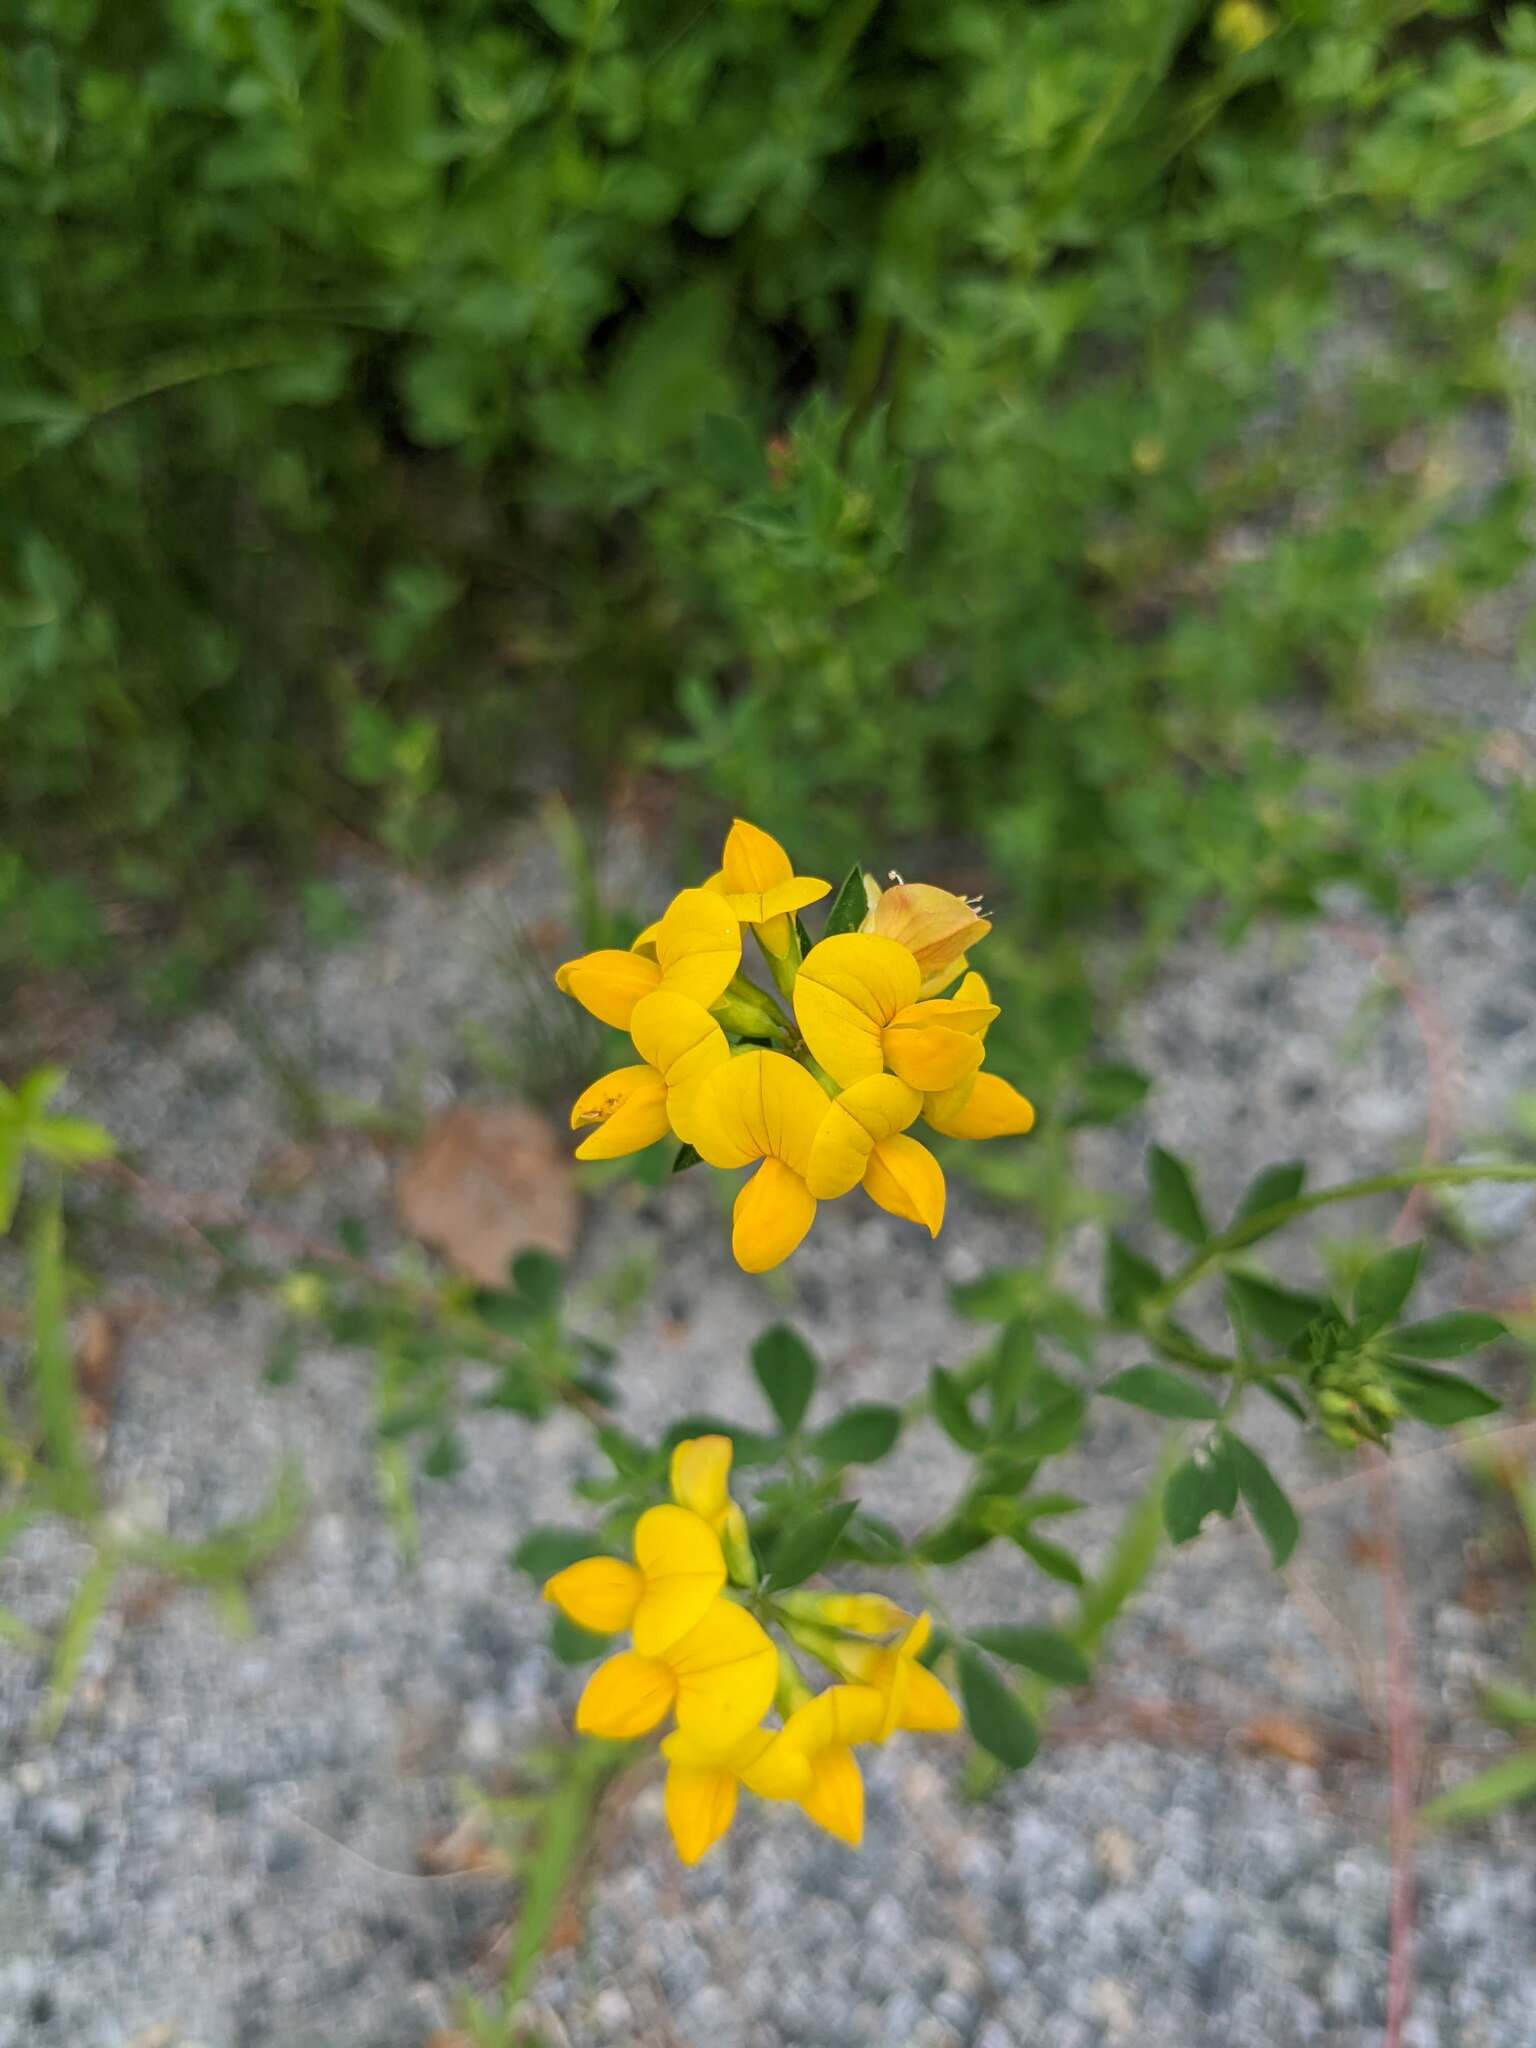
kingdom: Plantae
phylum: Tracheophyta
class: Magnoliopsida
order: Fabales
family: Fabaceae
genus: Lotus
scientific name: Lotus corniculatus
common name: Common bird's-foot-trefoil
